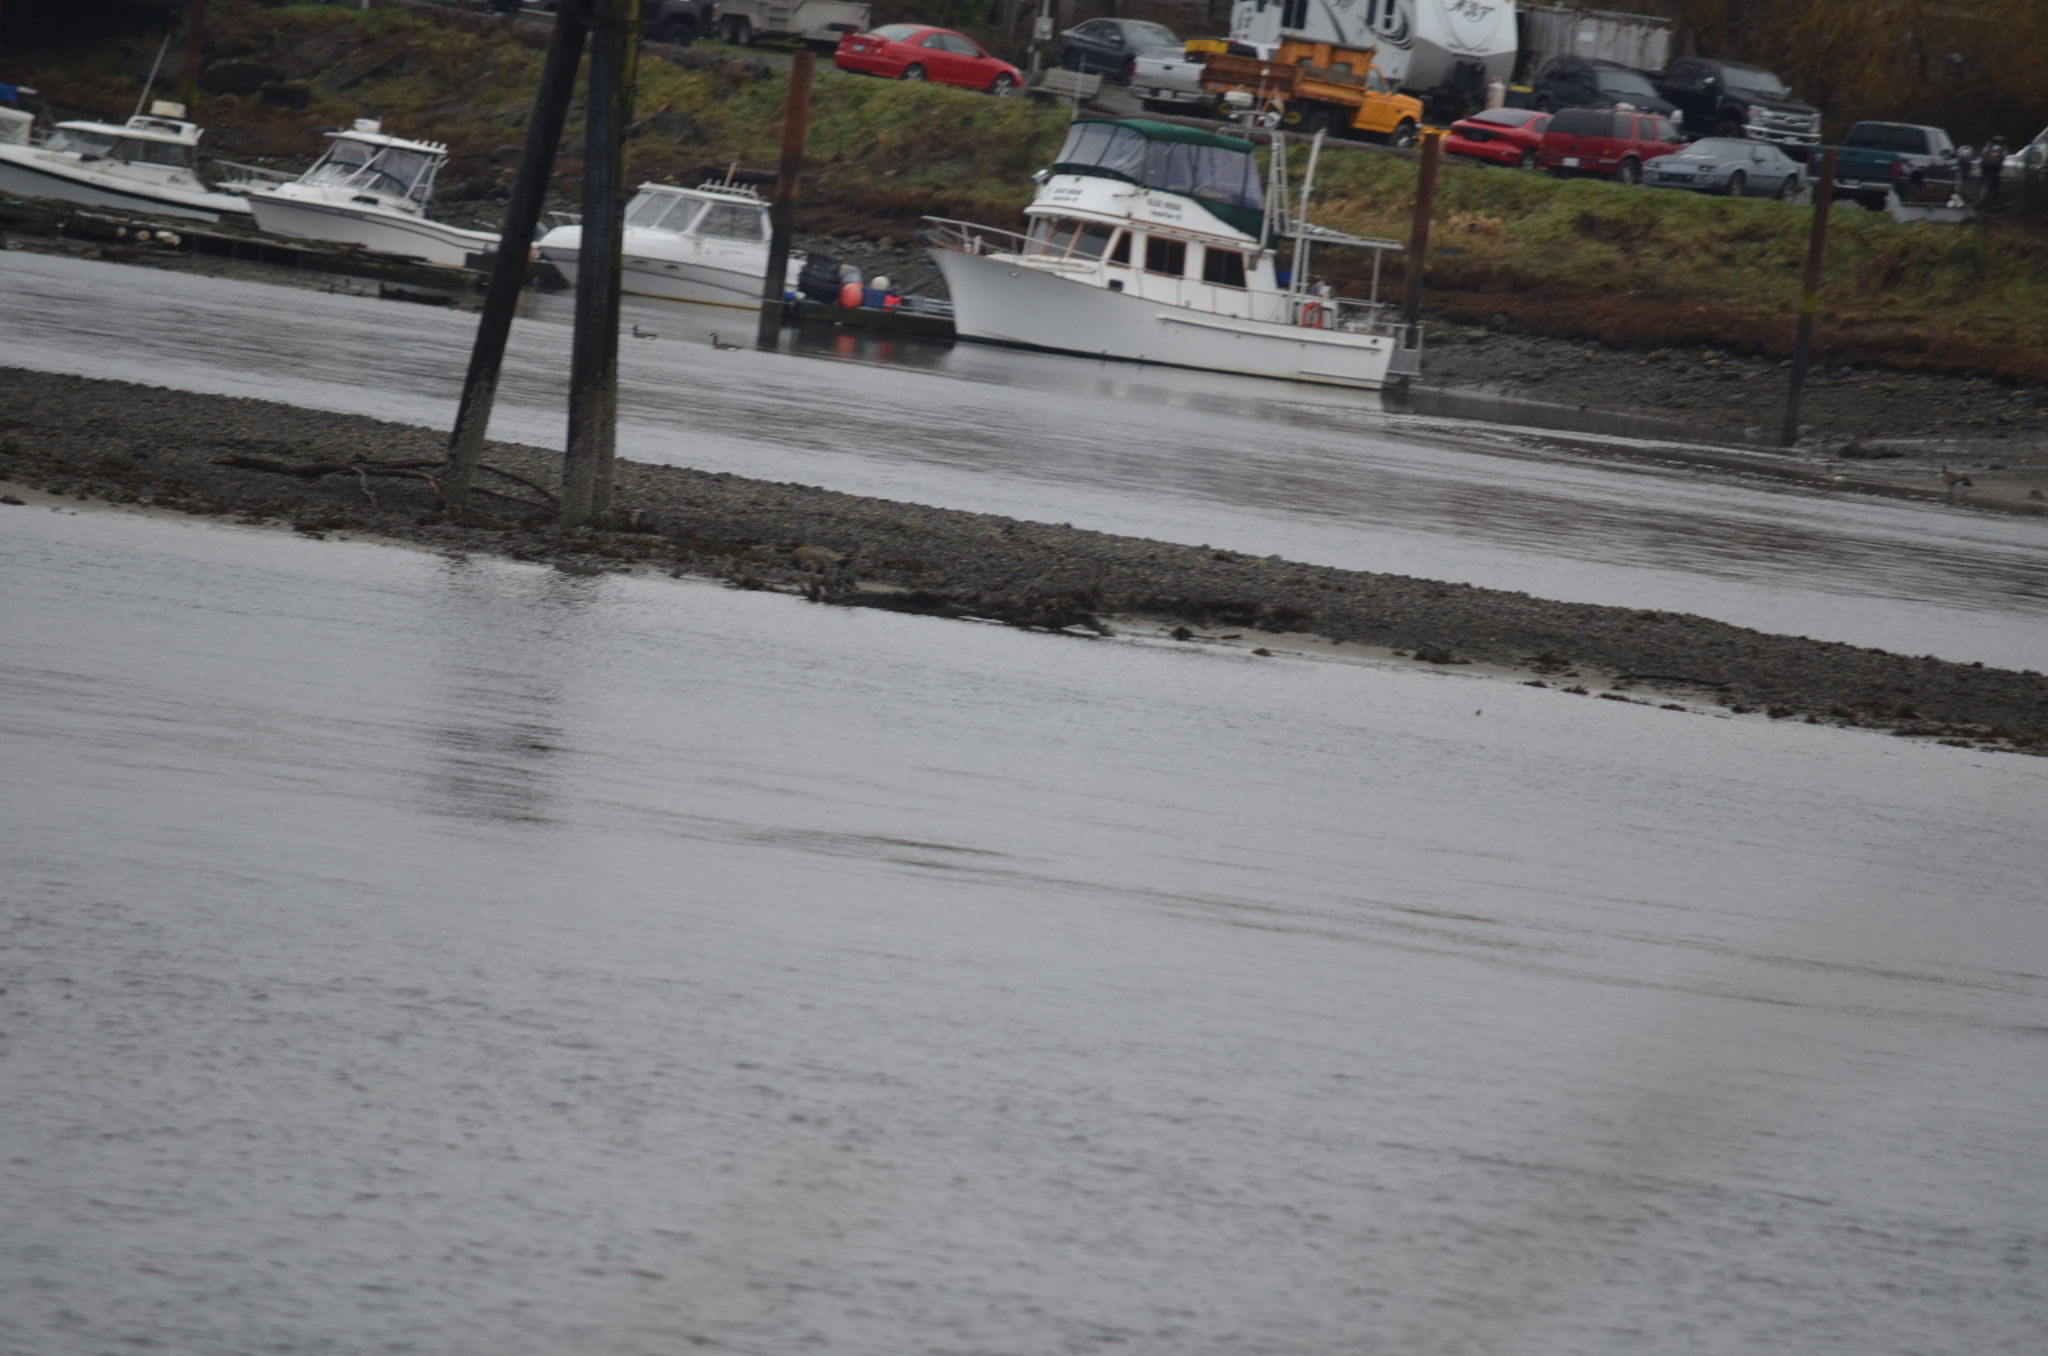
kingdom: Animalia
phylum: Chordata
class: Aves
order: Anseriformes
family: Anatidae
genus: Branta
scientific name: Branta canadensis
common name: Canada goose
